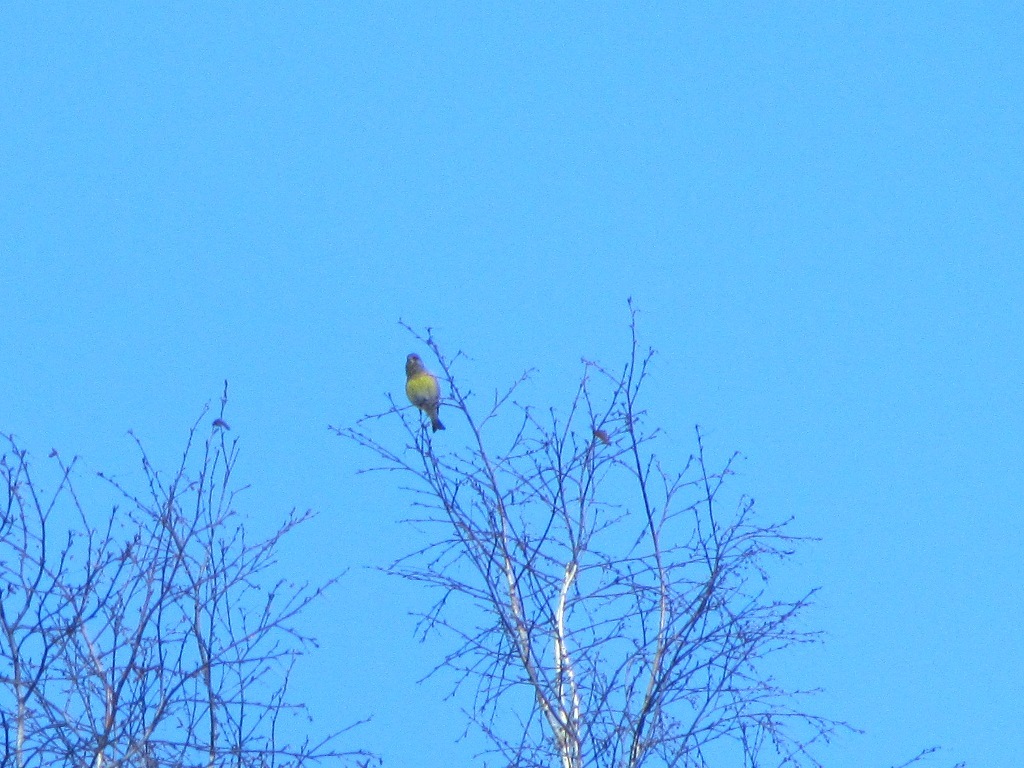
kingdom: Plantae
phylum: Tracheophyta
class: Liliopsida
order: Poales
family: Poaceae
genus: Chloris
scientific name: Chloris chloris
